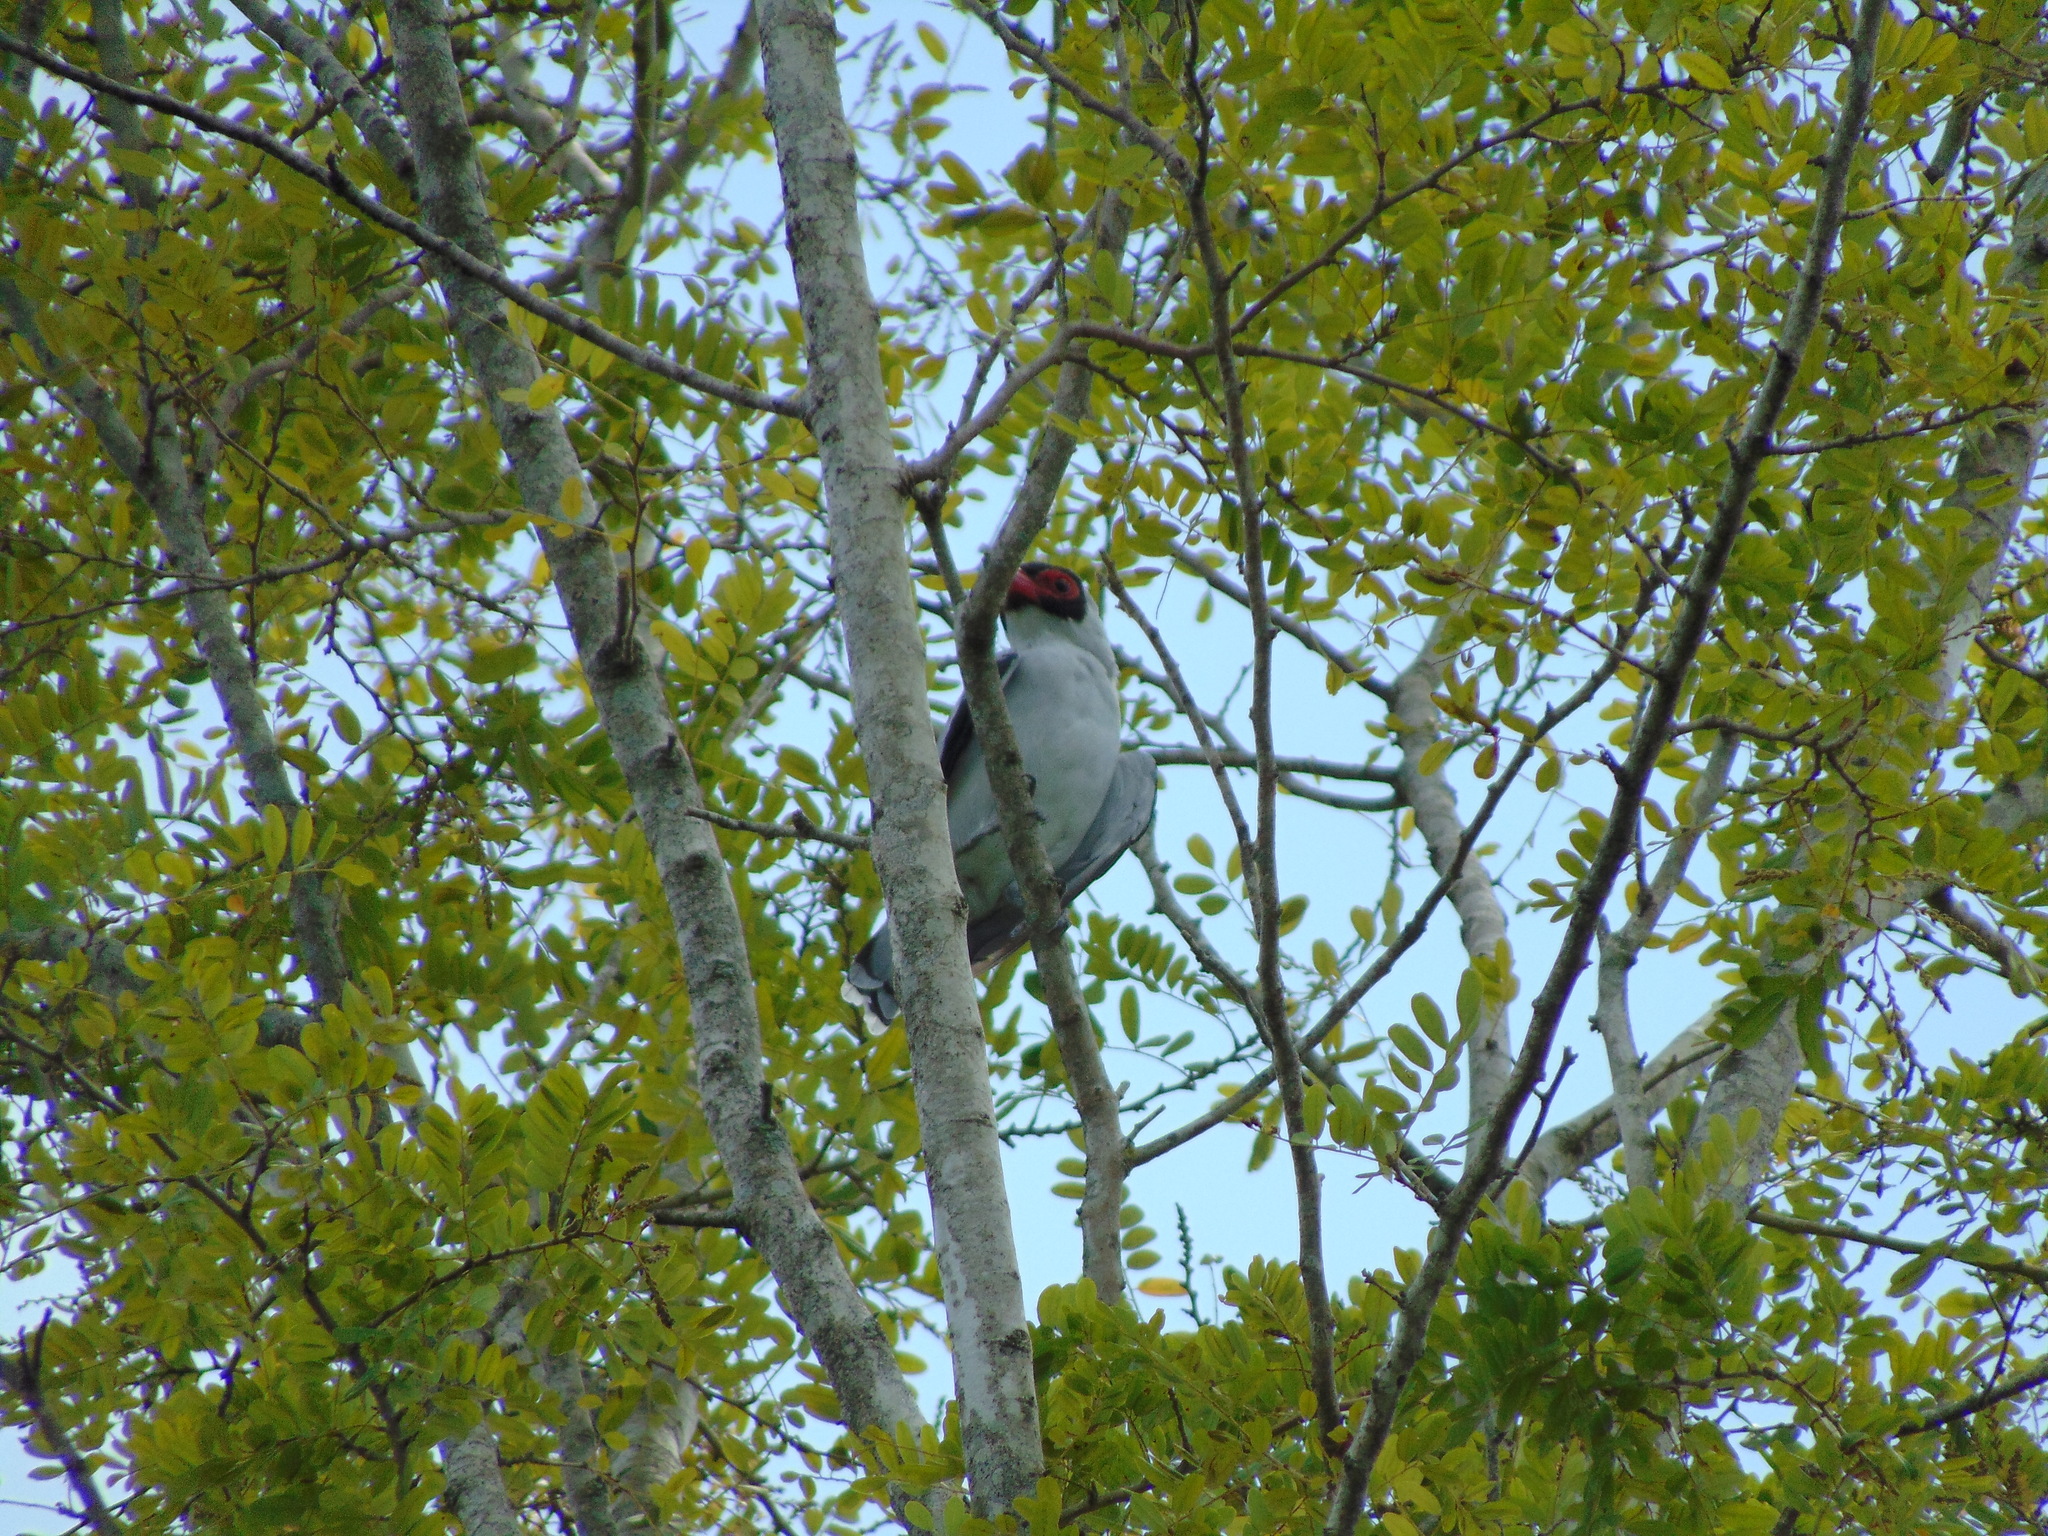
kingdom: Animalia
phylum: Chordata
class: Aves
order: Passeriformes
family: Cotingidae
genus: Tityra
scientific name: Tityra semifasciata
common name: Masked tityra
